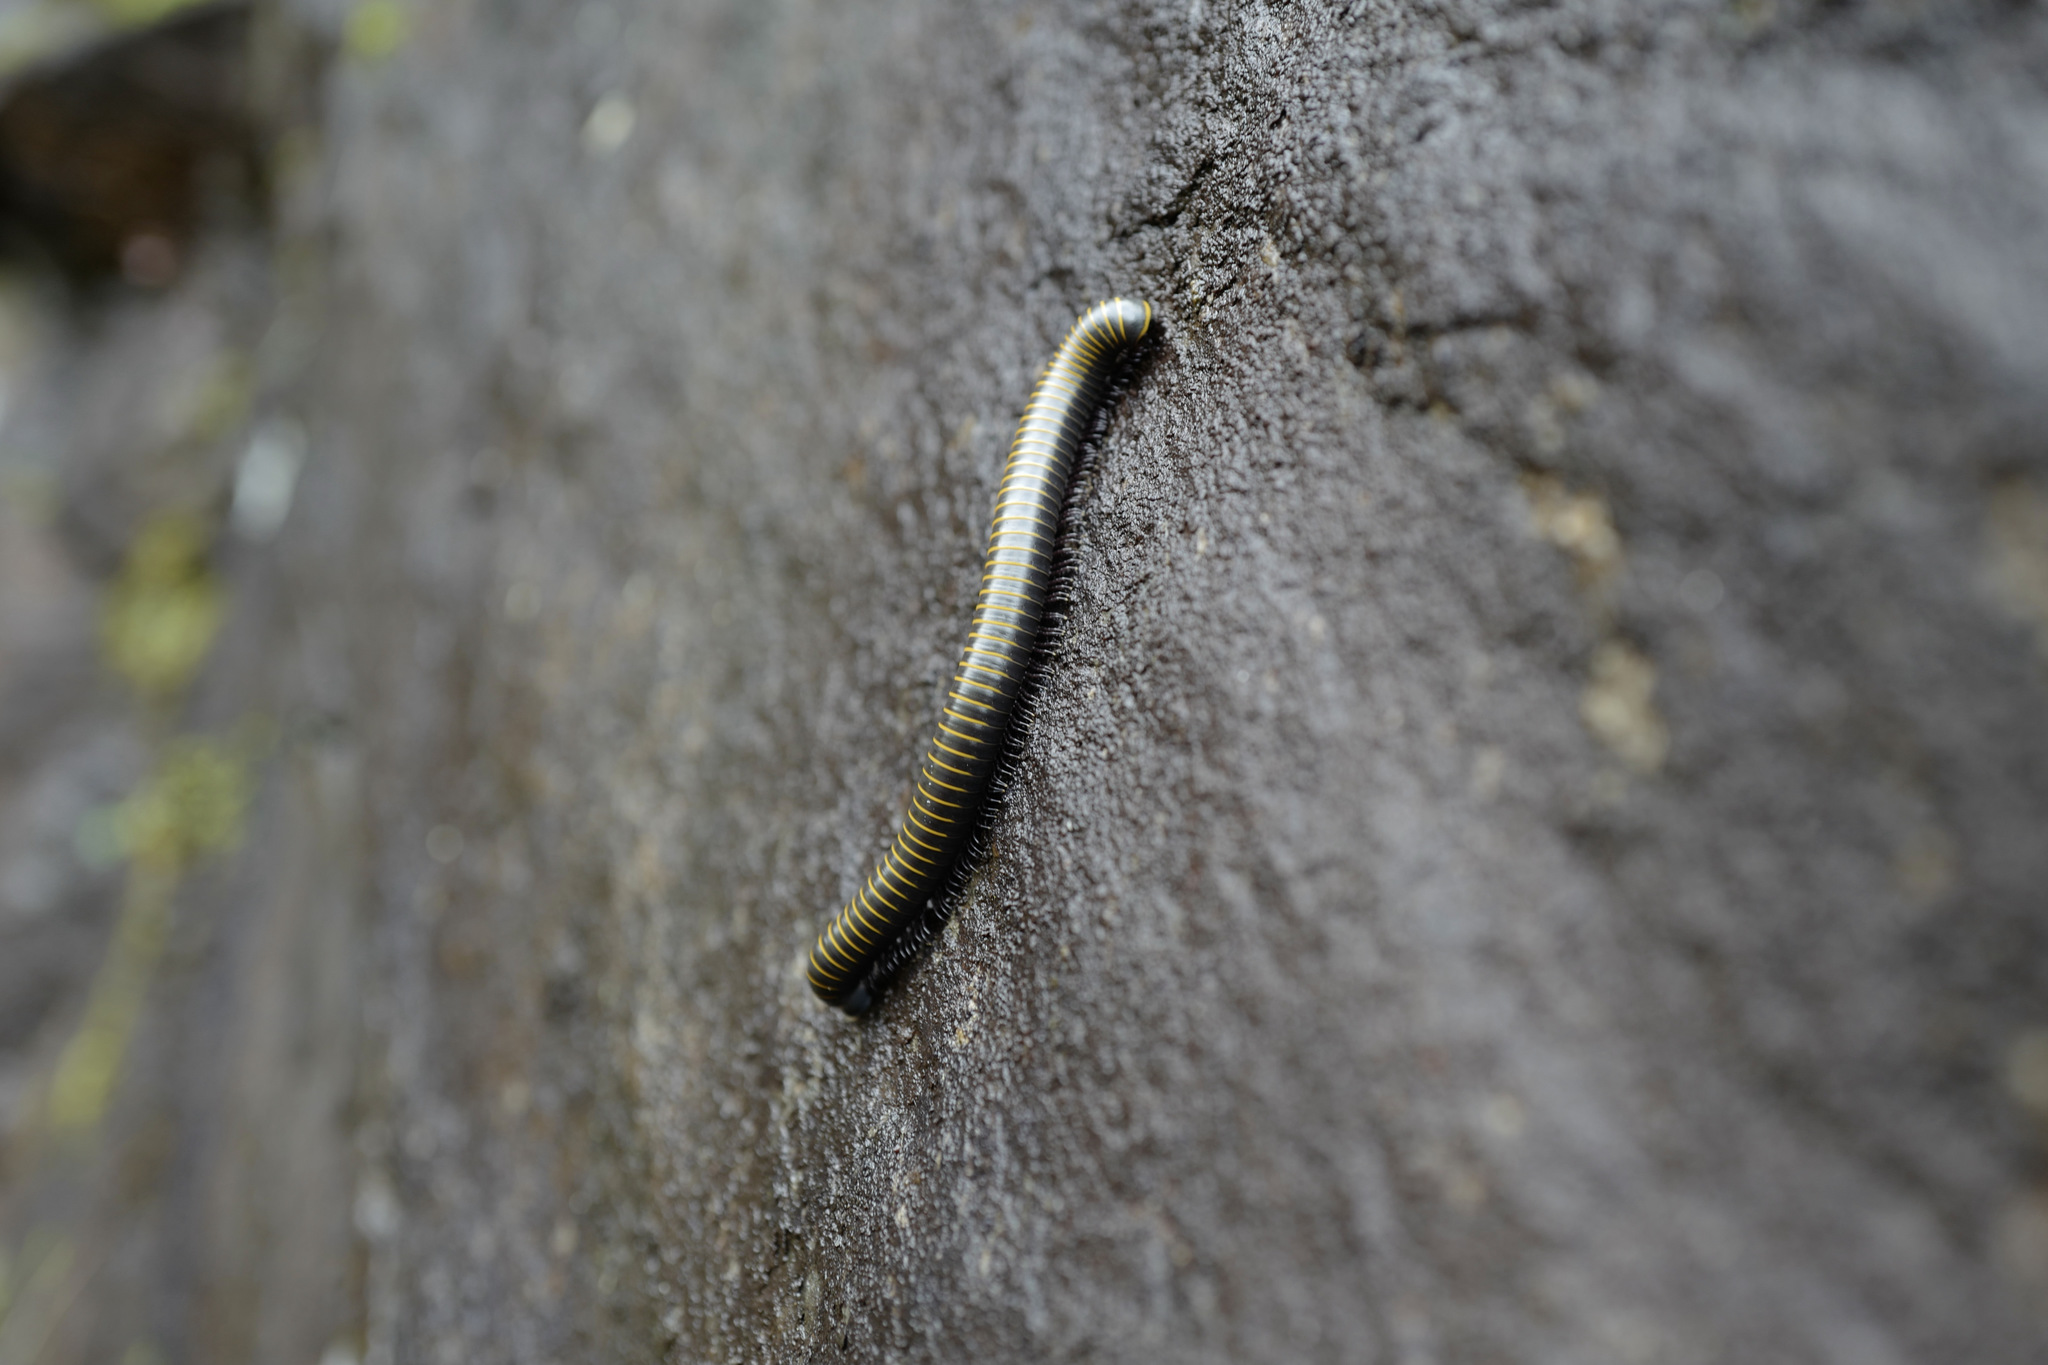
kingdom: Animalia
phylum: Arthropoda
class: Diplopoda
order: Spirobolida
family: Spirobolidae
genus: Spirobolus
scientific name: Spirobolus bungii
